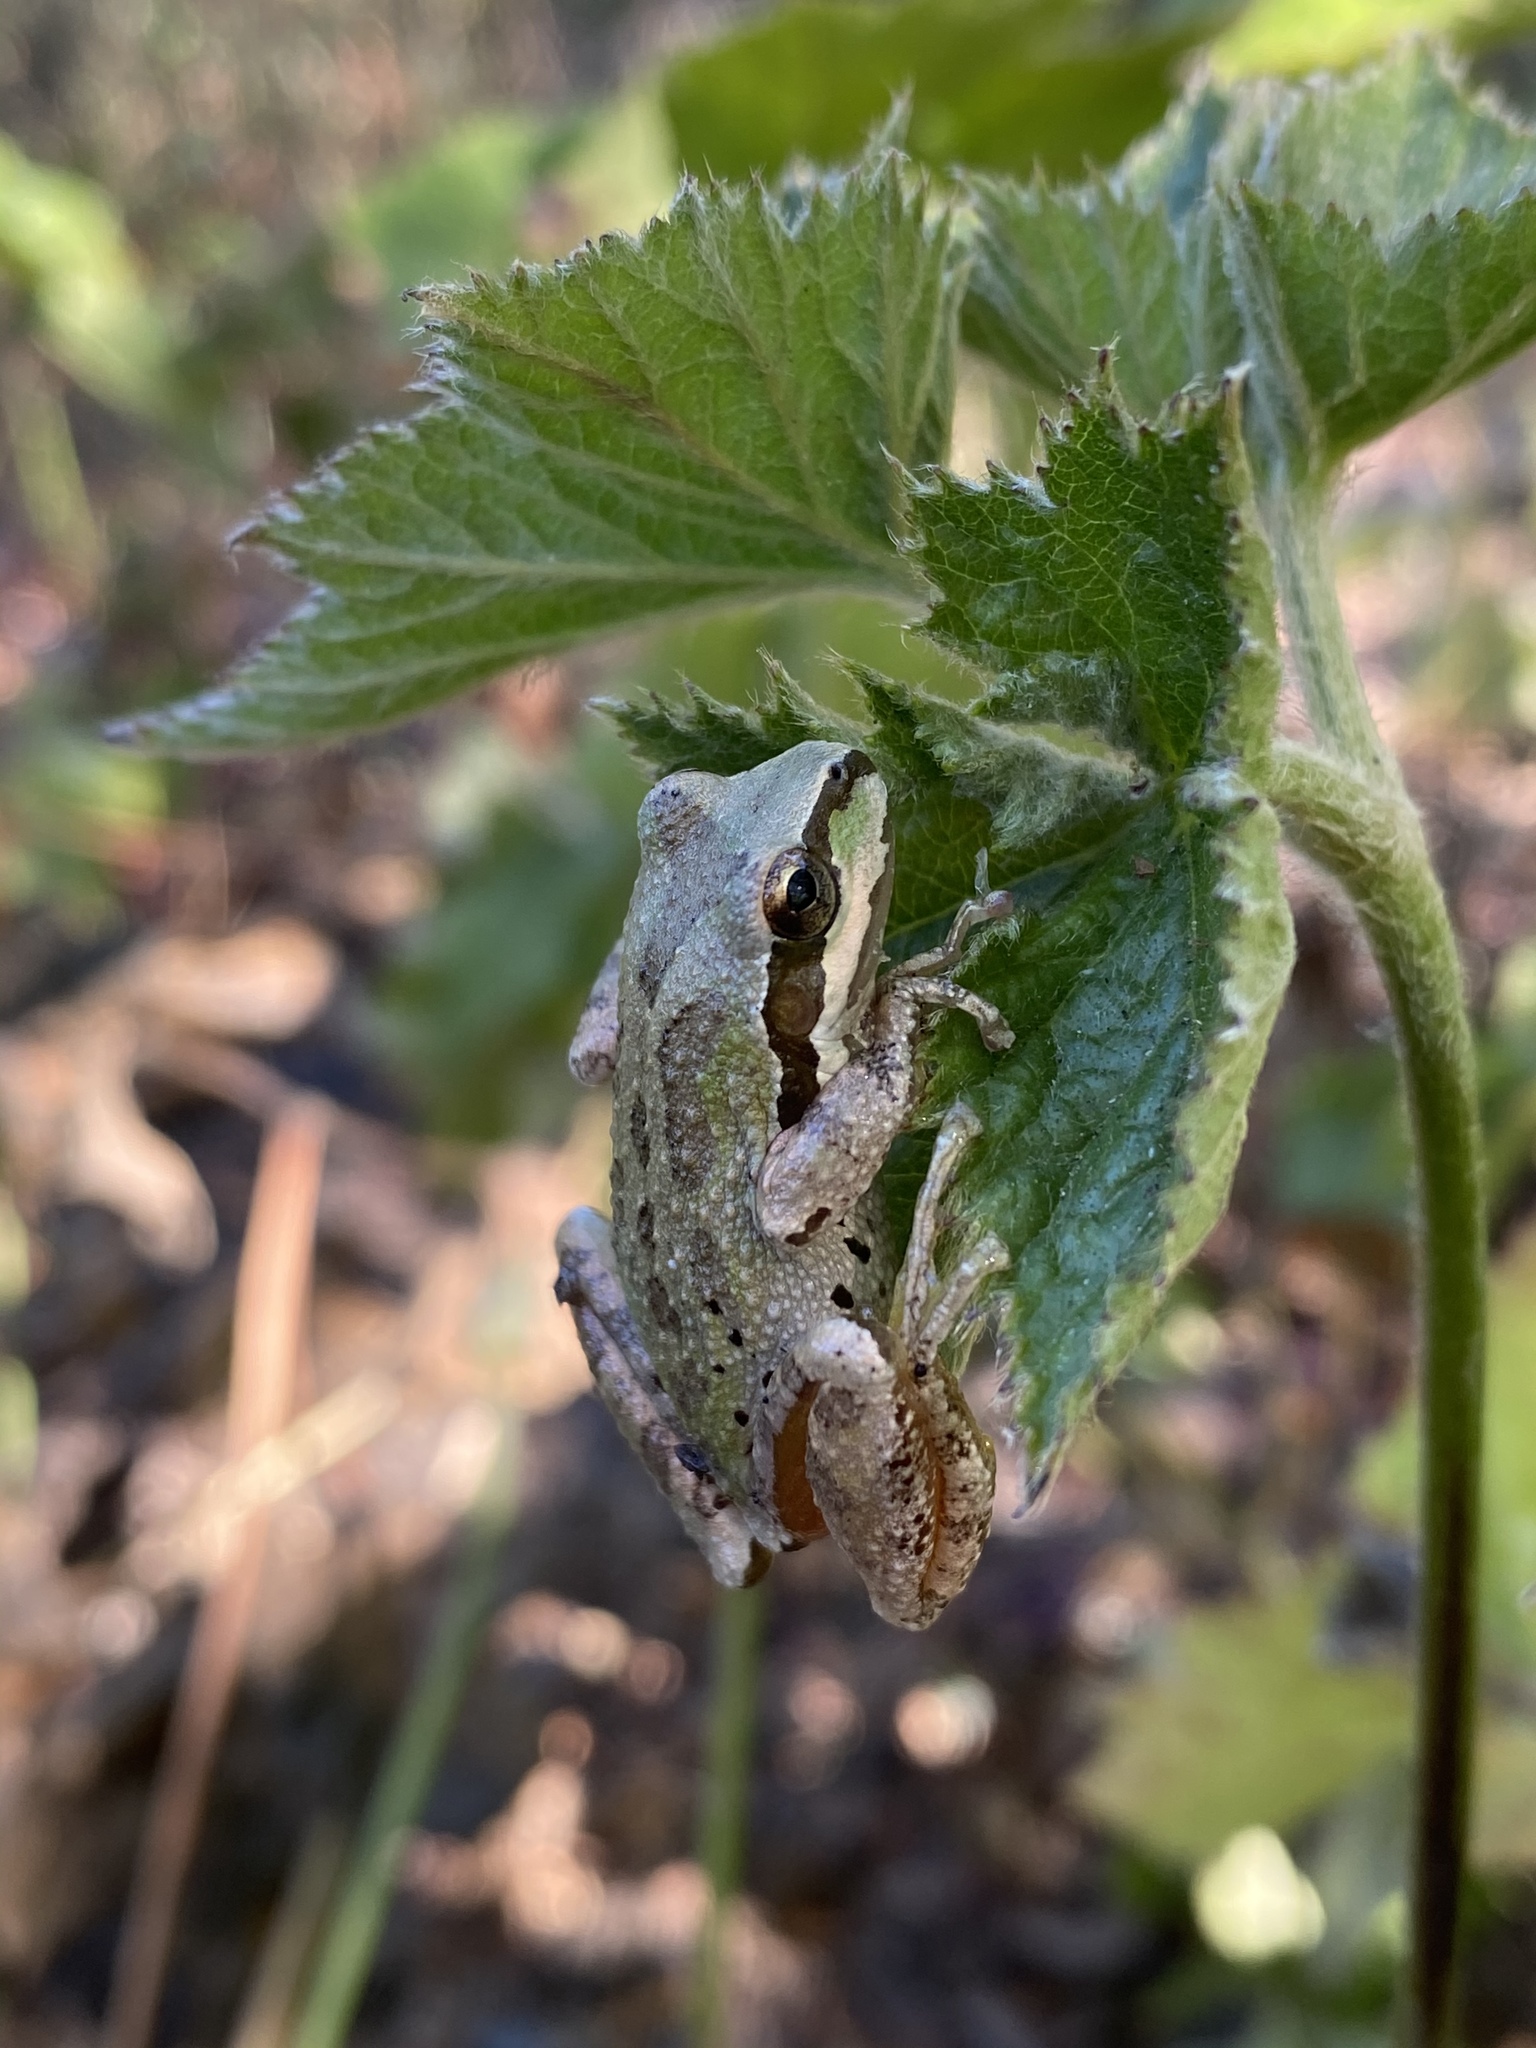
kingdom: Animalia
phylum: Chordata
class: Amphibia
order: Anura
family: Hylidae
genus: Pseudacris
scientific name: Pseudacris regilla
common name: Pacific chorus frog
